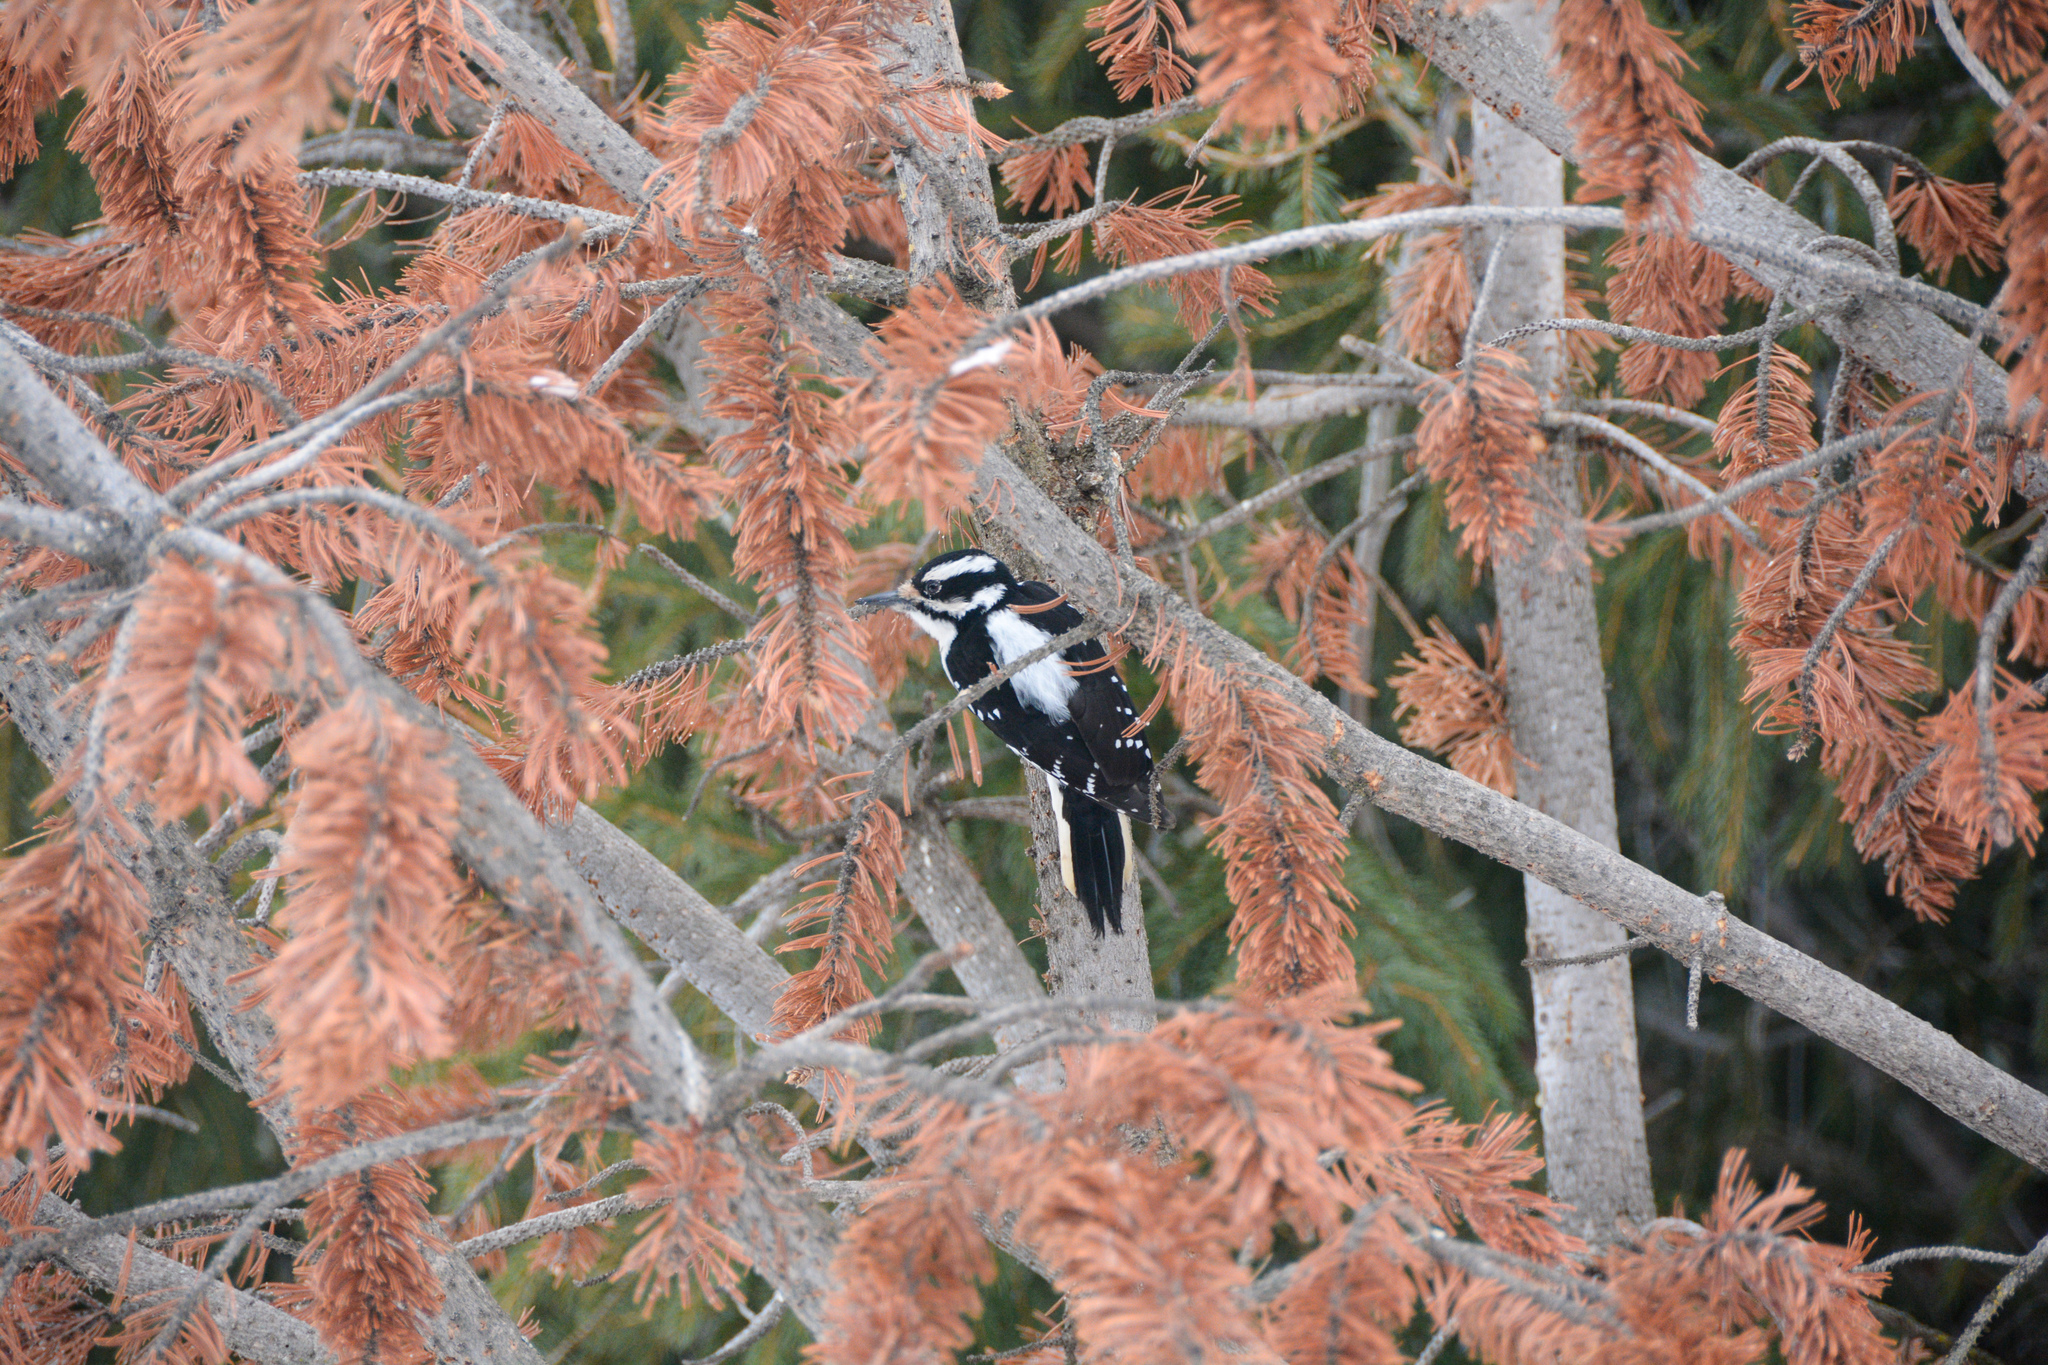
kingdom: Animalia
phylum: Chordata
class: Aves
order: Piciformes
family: Picidae
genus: Leuconotopicus
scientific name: Leuconotopicus villosus
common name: Hairy woodpecker
